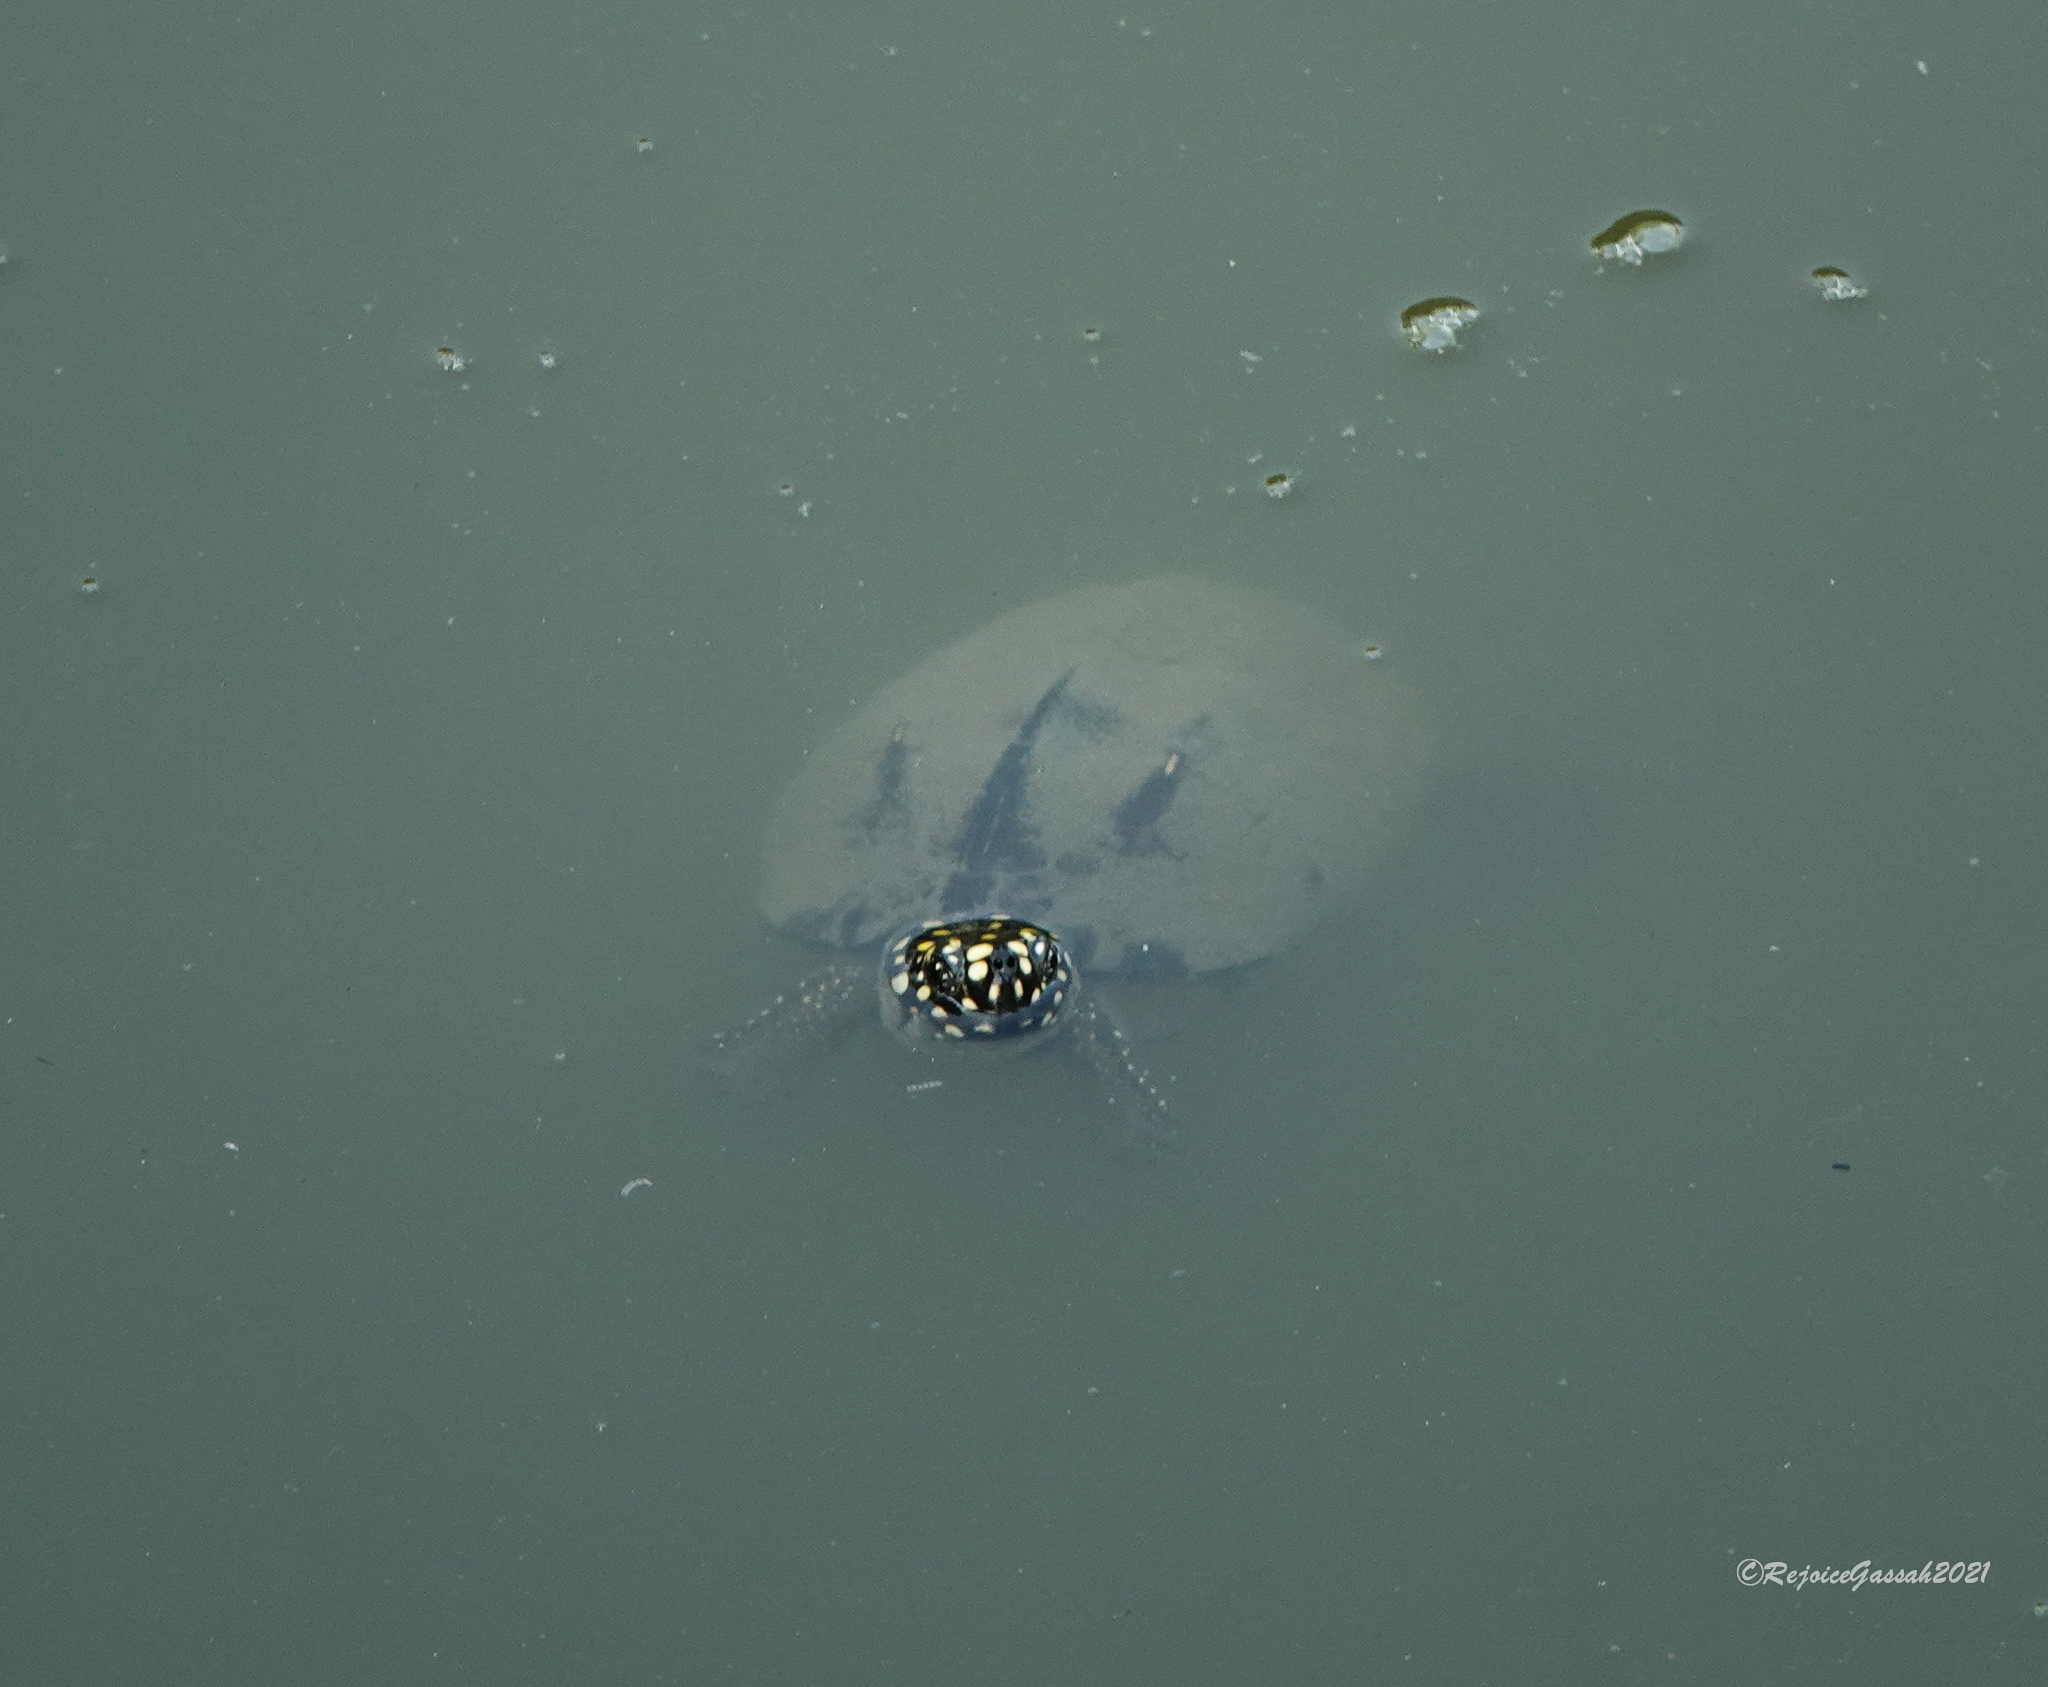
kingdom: Animalia
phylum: Chordata
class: Testudines
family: Geoemydidae
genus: Geoclemys
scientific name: Geoclemys hamiltonii
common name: Spotted pond turtle
